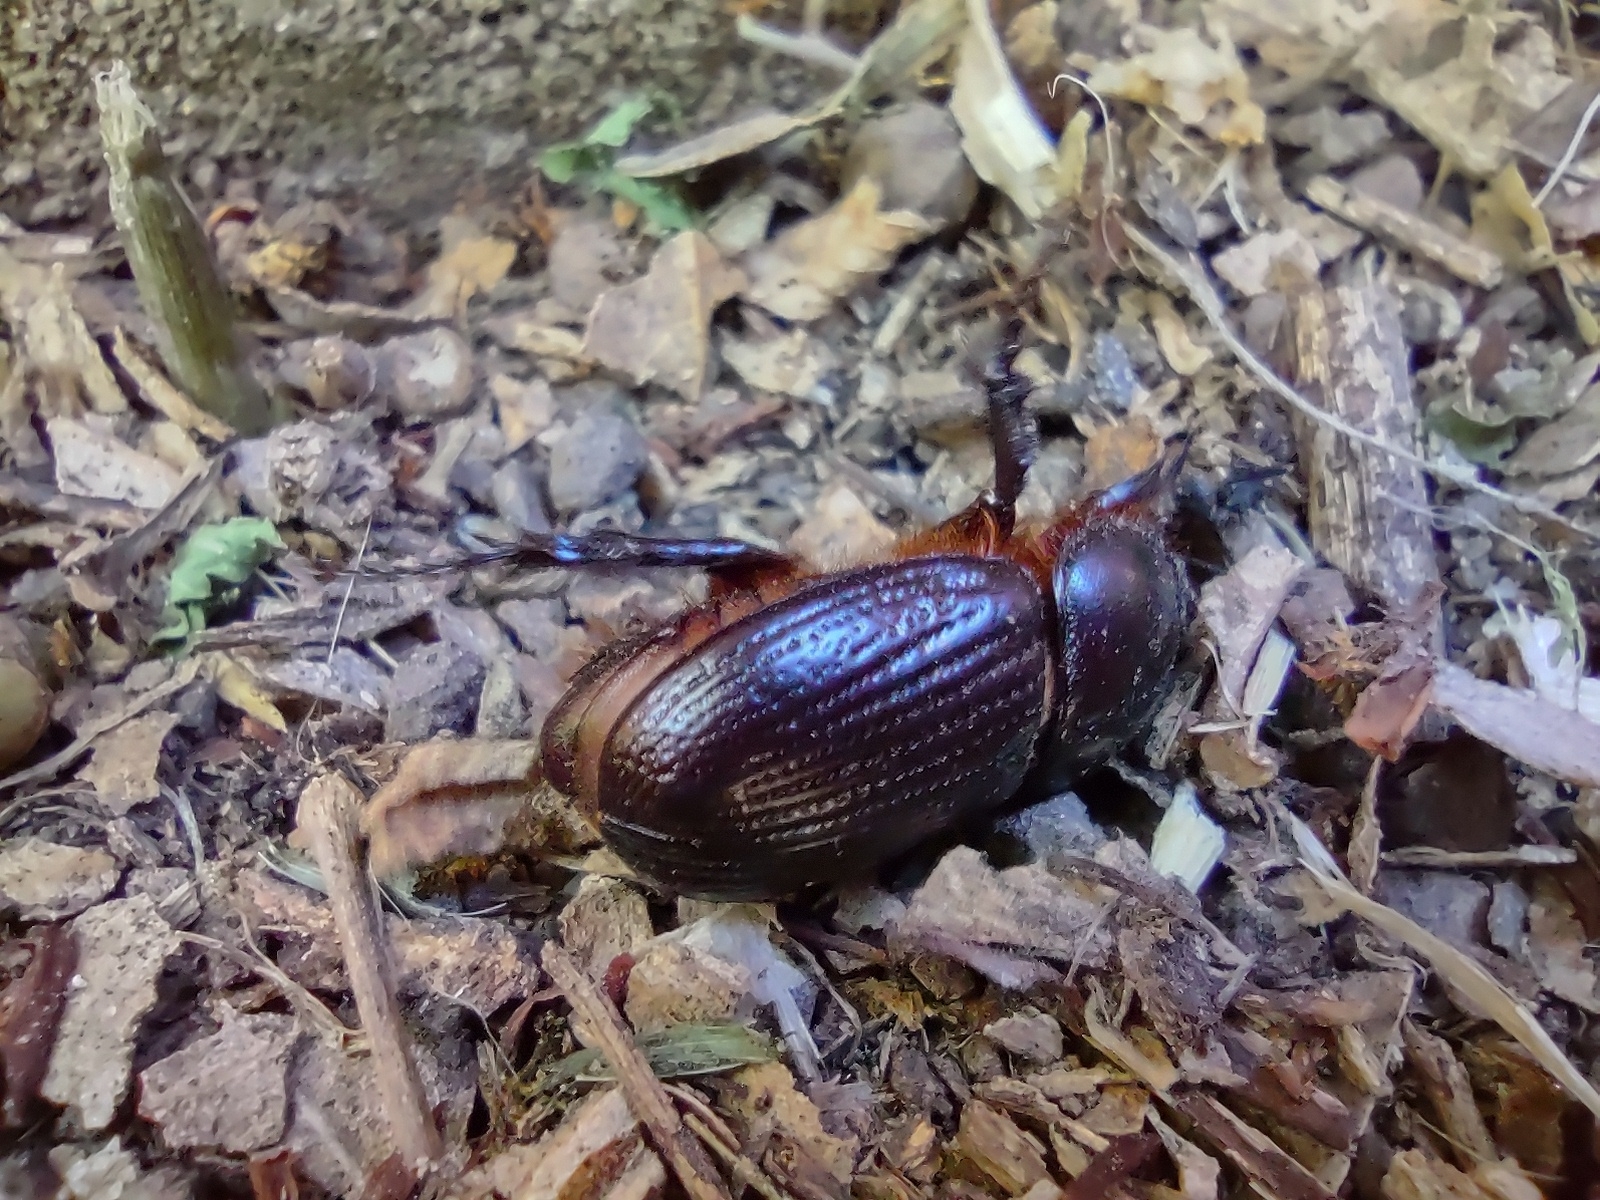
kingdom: Animalia
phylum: Arthropoda
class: Insecta
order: Coleoptera
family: Scarabaeidae
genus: Archophileurus
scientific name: Archophileurus
